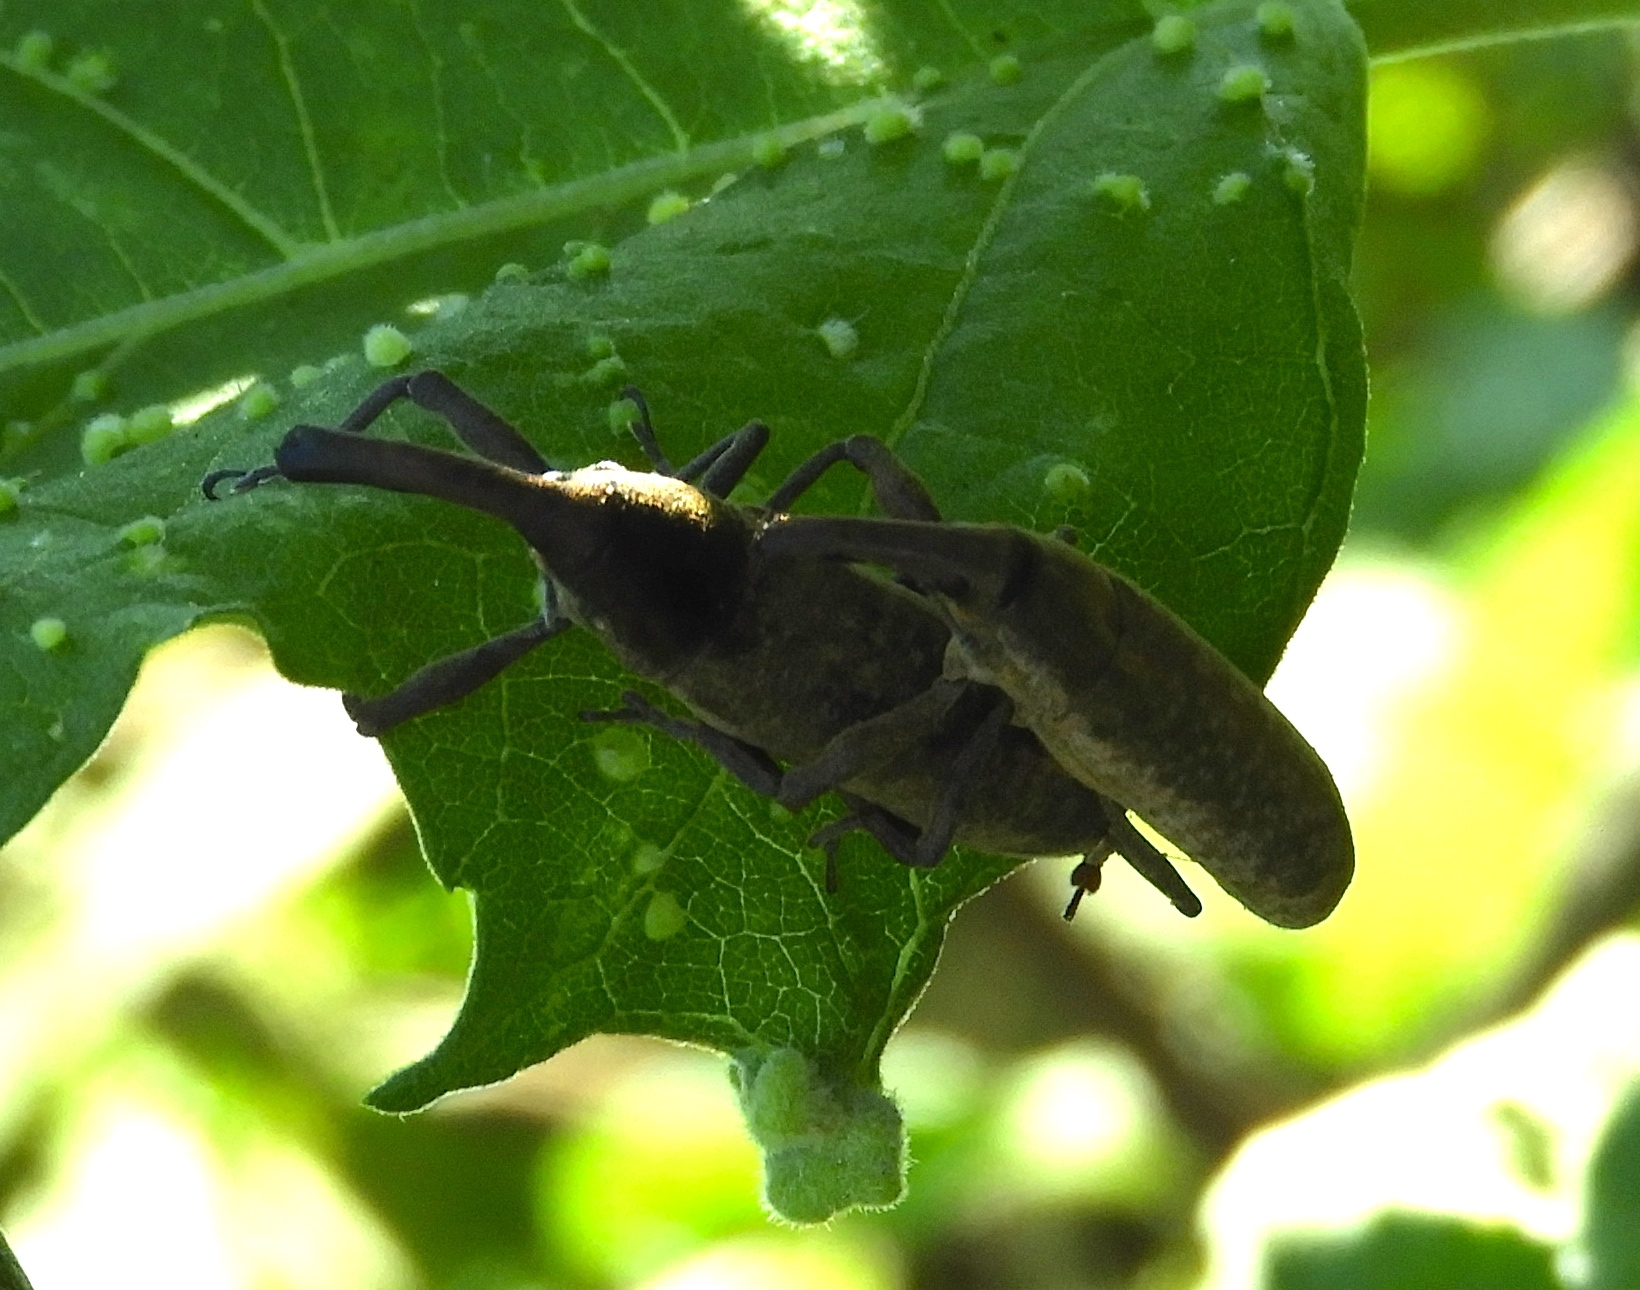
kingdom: Animalia
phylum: Arthropoda
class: Insecta
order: Coleoptera
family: Curculionidae
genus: Lixus
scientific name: Lixus
